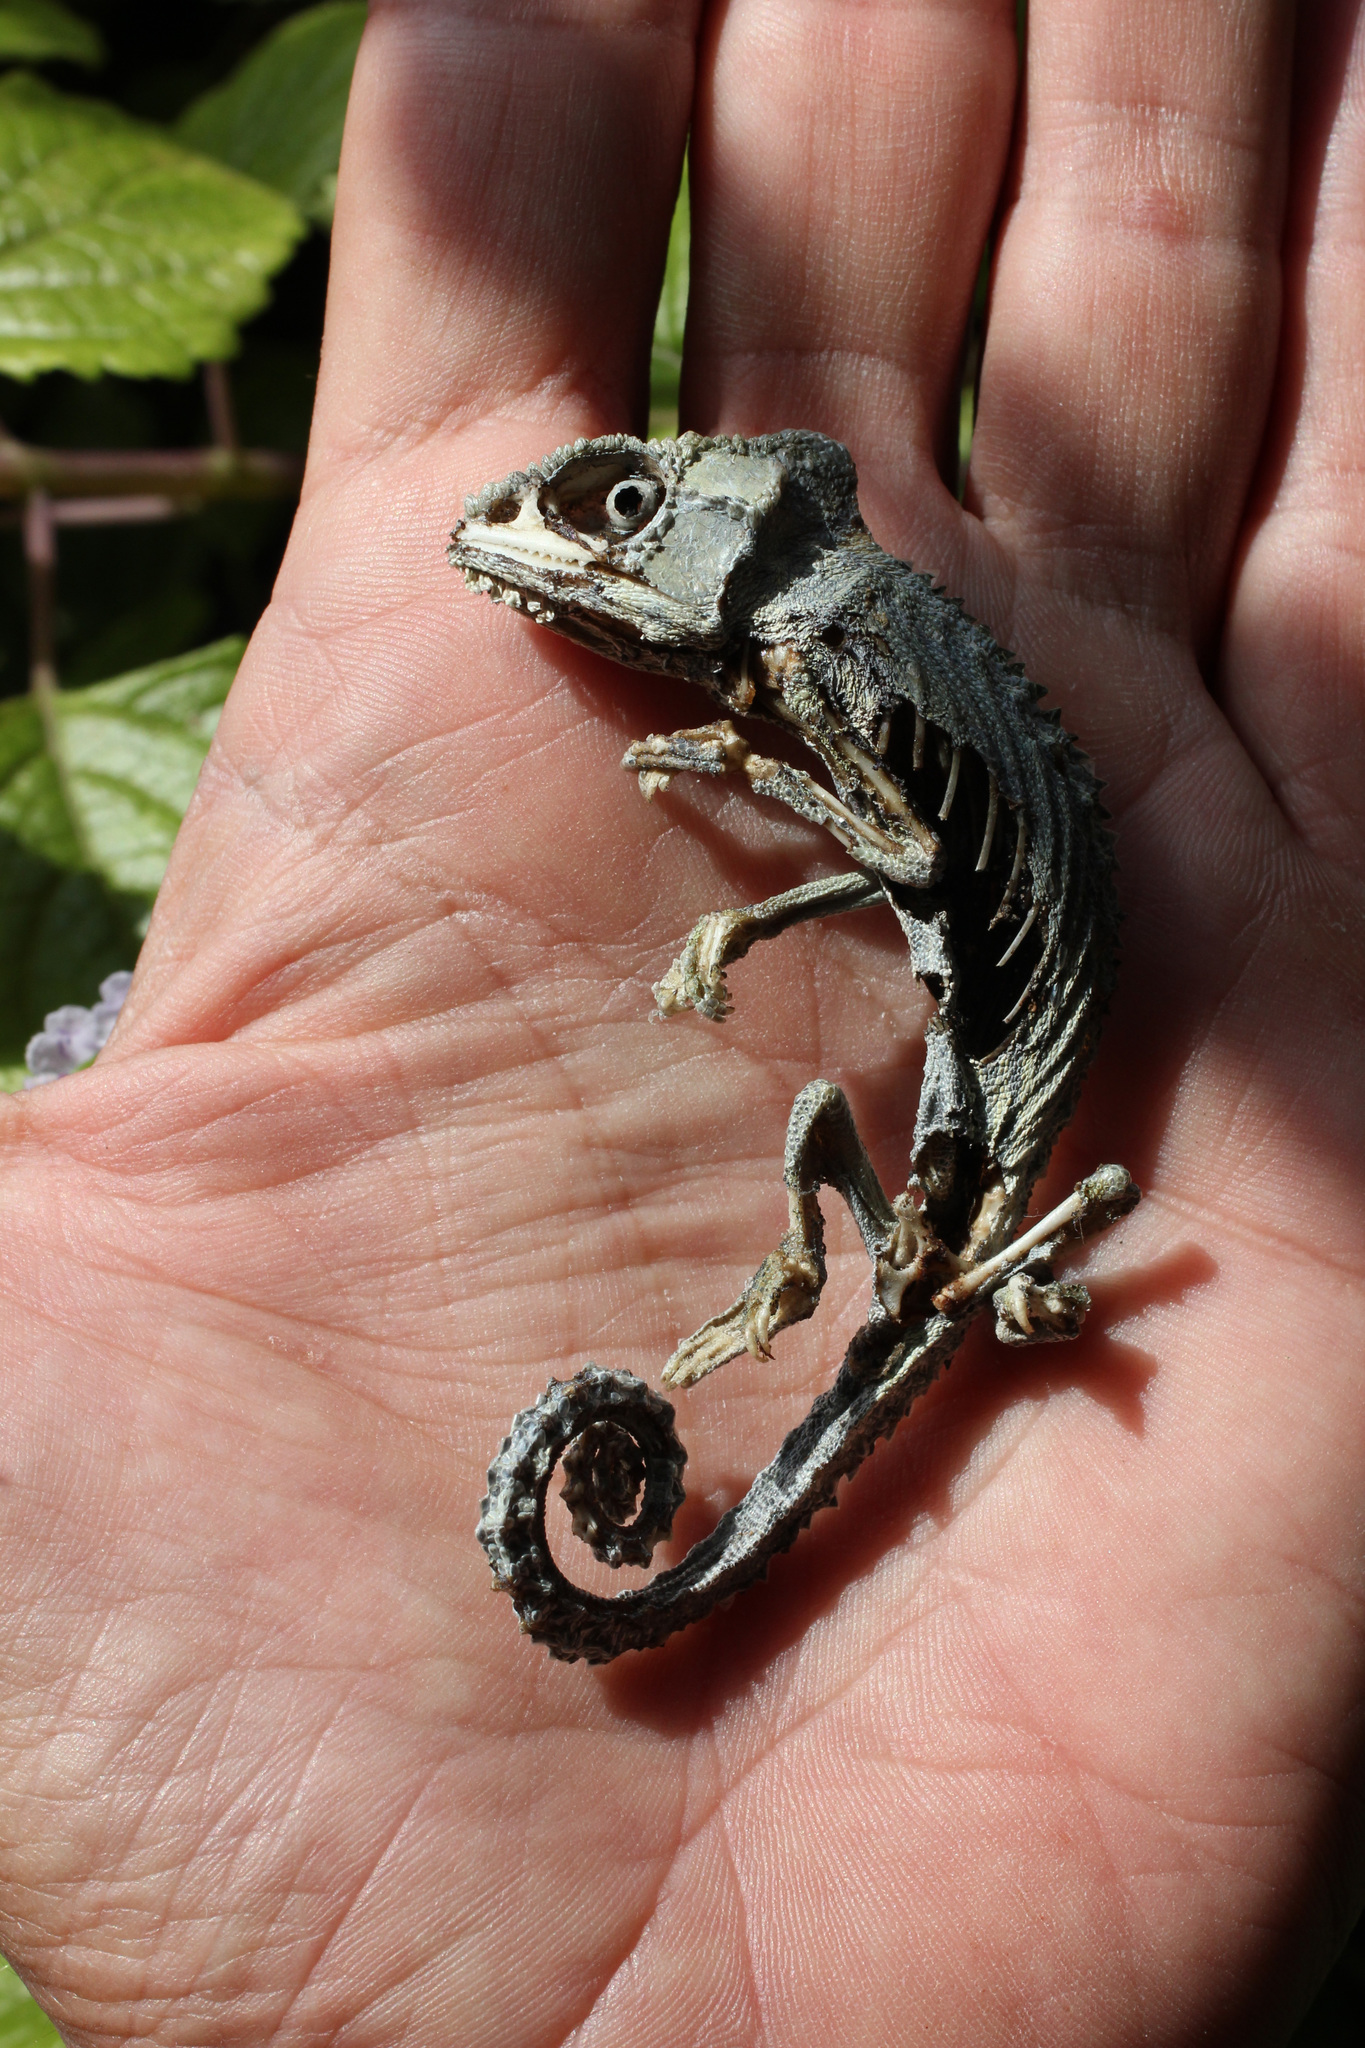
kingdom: Animalia
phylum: Chordata
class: Squamata
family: Chamaeleonidae
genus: Bradypodion
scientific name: Bradypodion pumilum
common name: Cape dwarf chameleon
